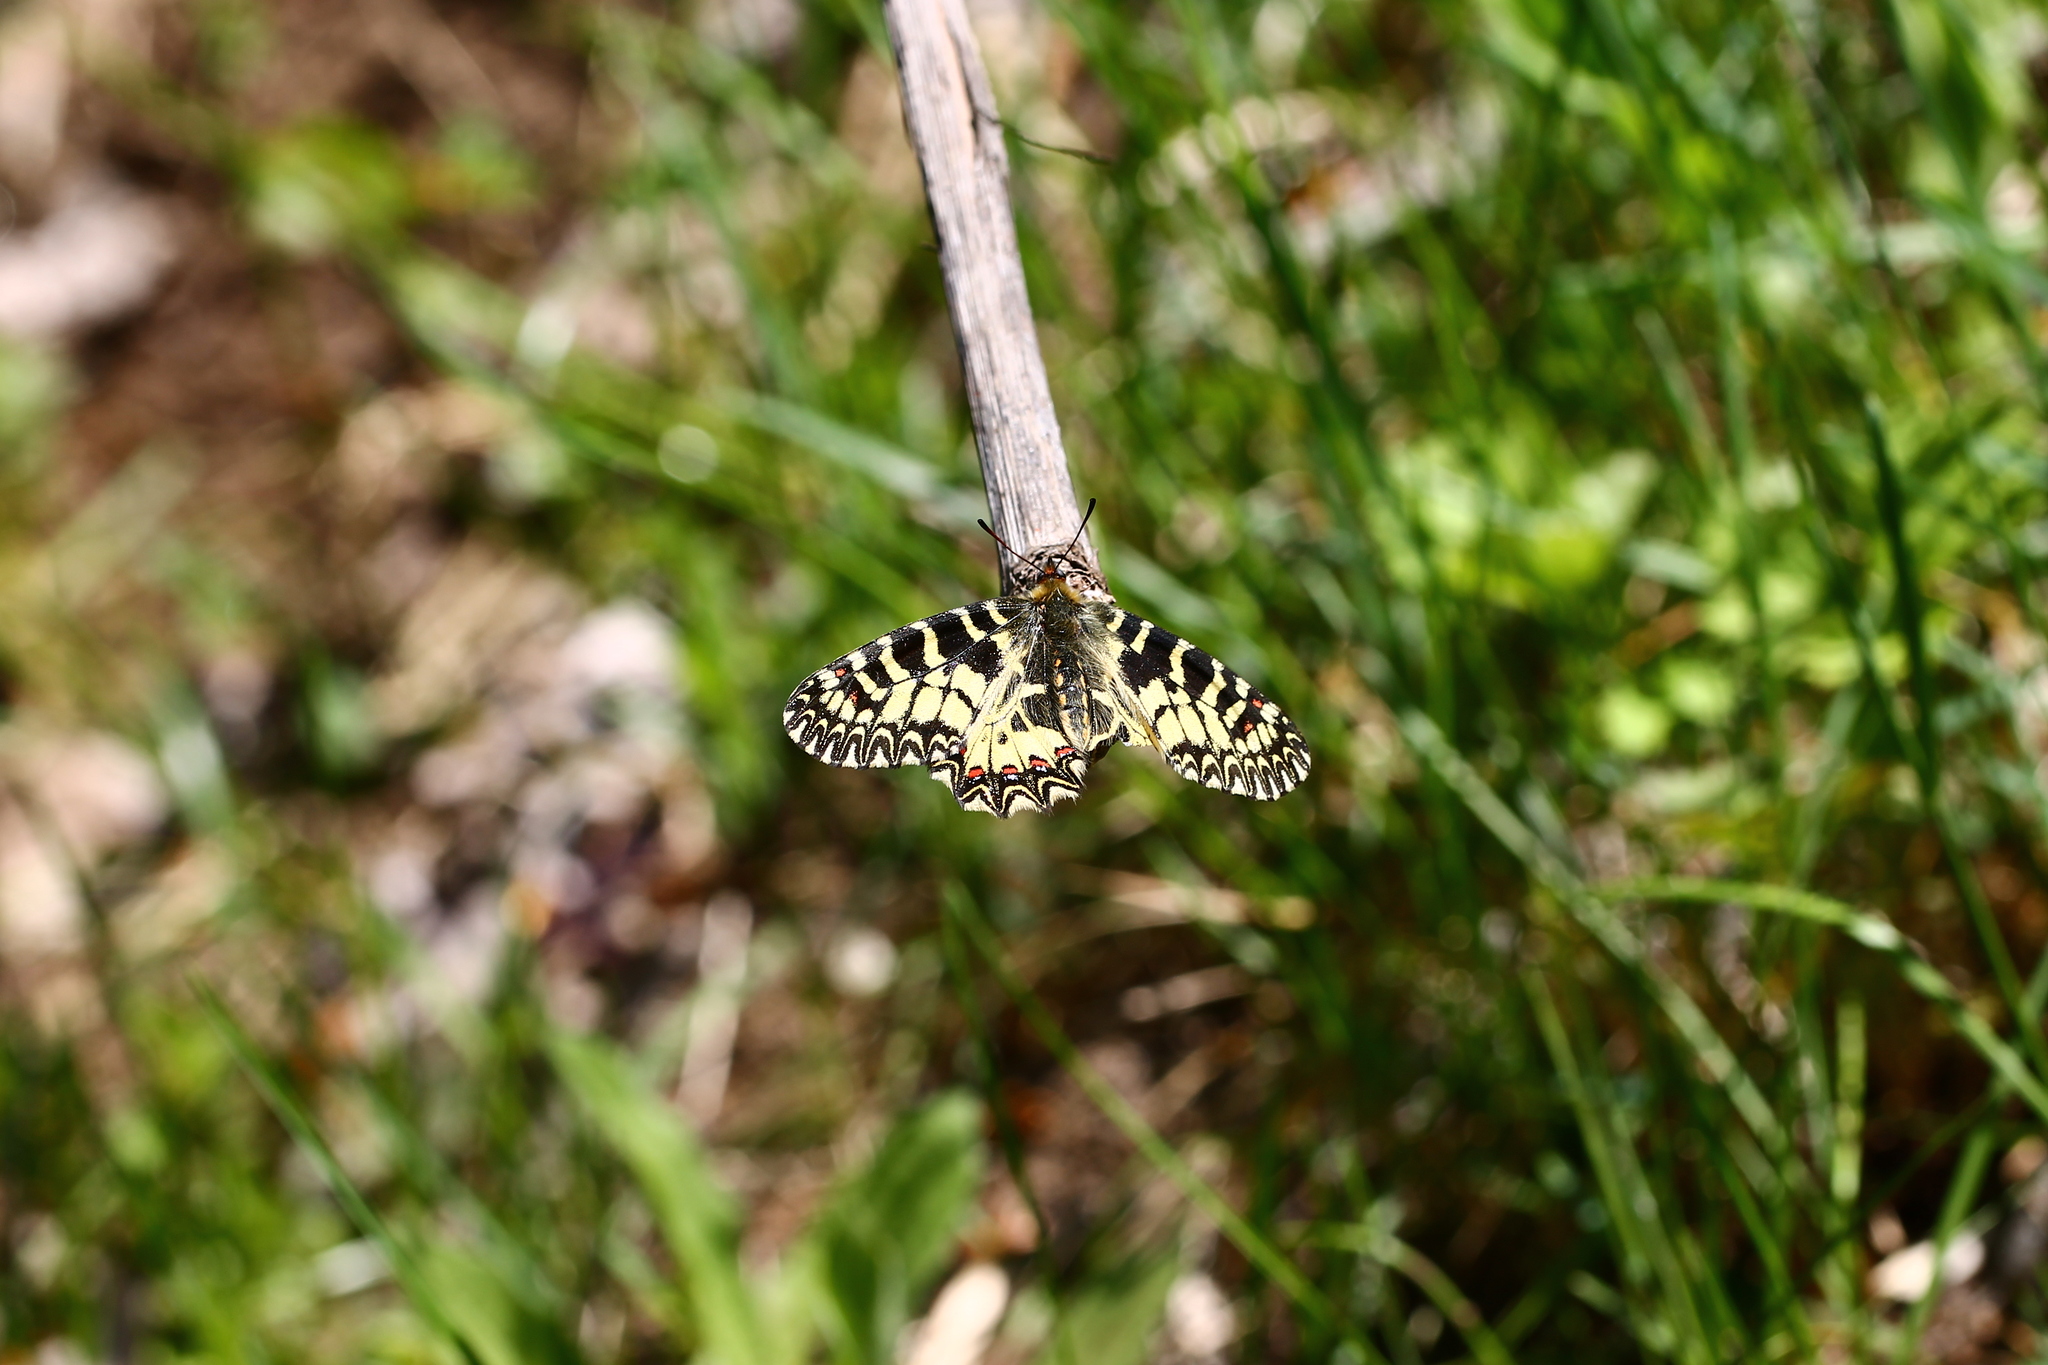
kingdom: Animalia
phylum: Arthropoda
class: Insecta
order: Lepidoptera
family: Papilionidae
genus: Zerynthia
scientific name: Zerynthia polyxena
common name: Southern festoon
